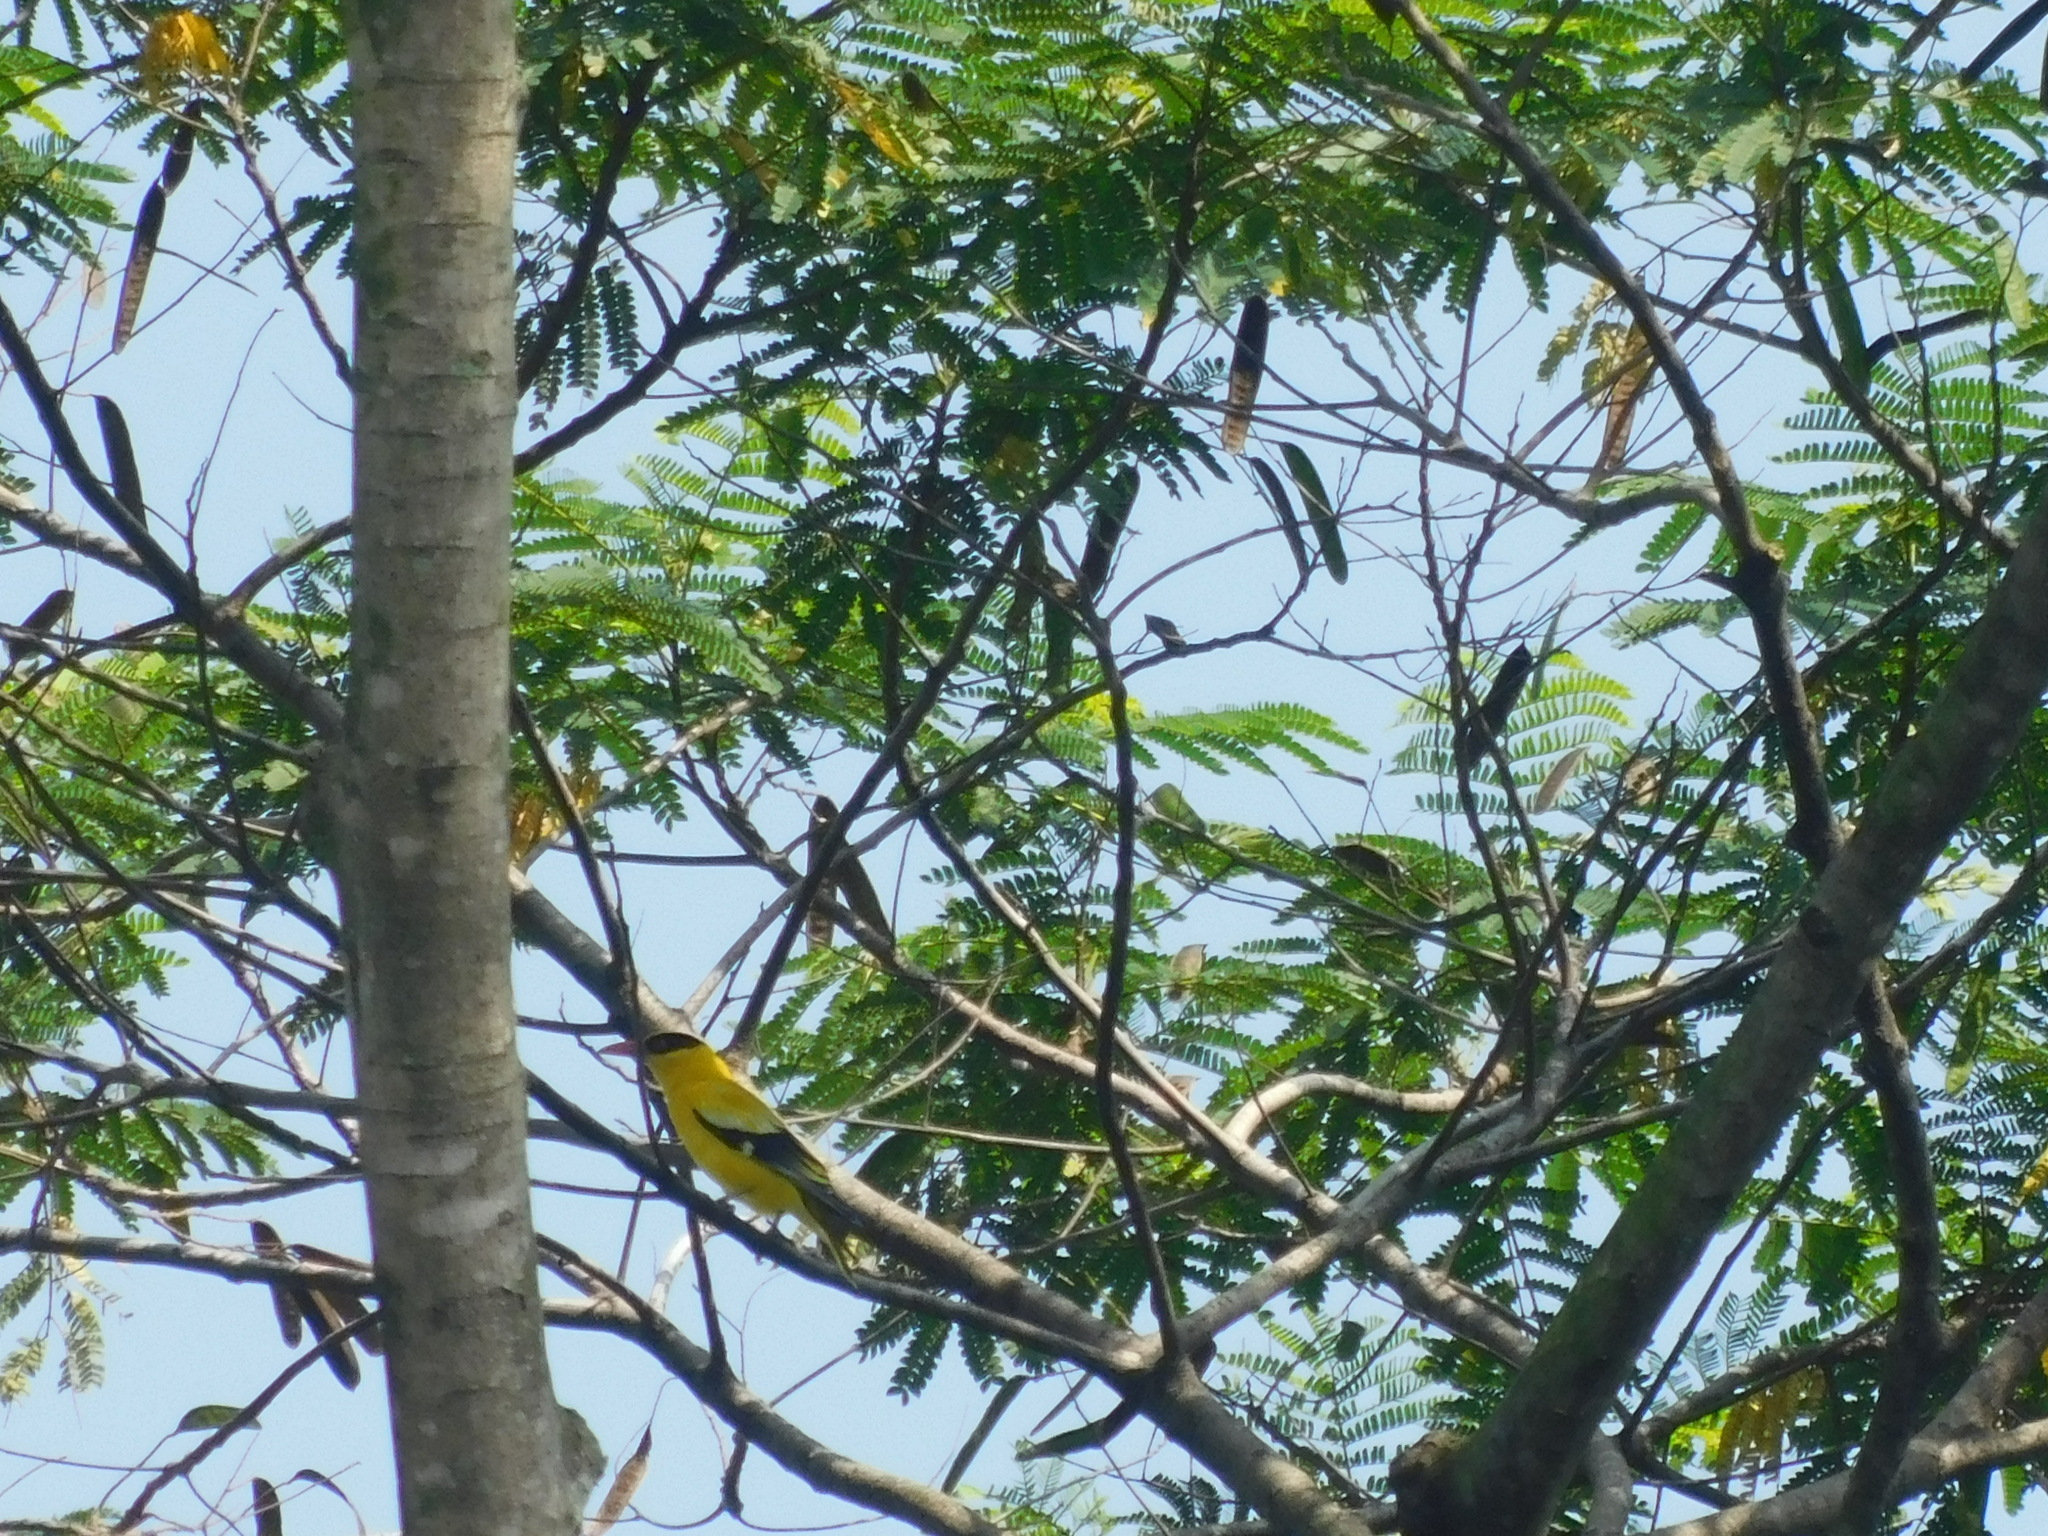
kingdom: Animalia
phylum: Chordata
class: Aves
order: Passeriformes
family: Oriolidae
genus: Oriolus
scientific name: Oriolus chinensis
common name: Black-naped oriole
